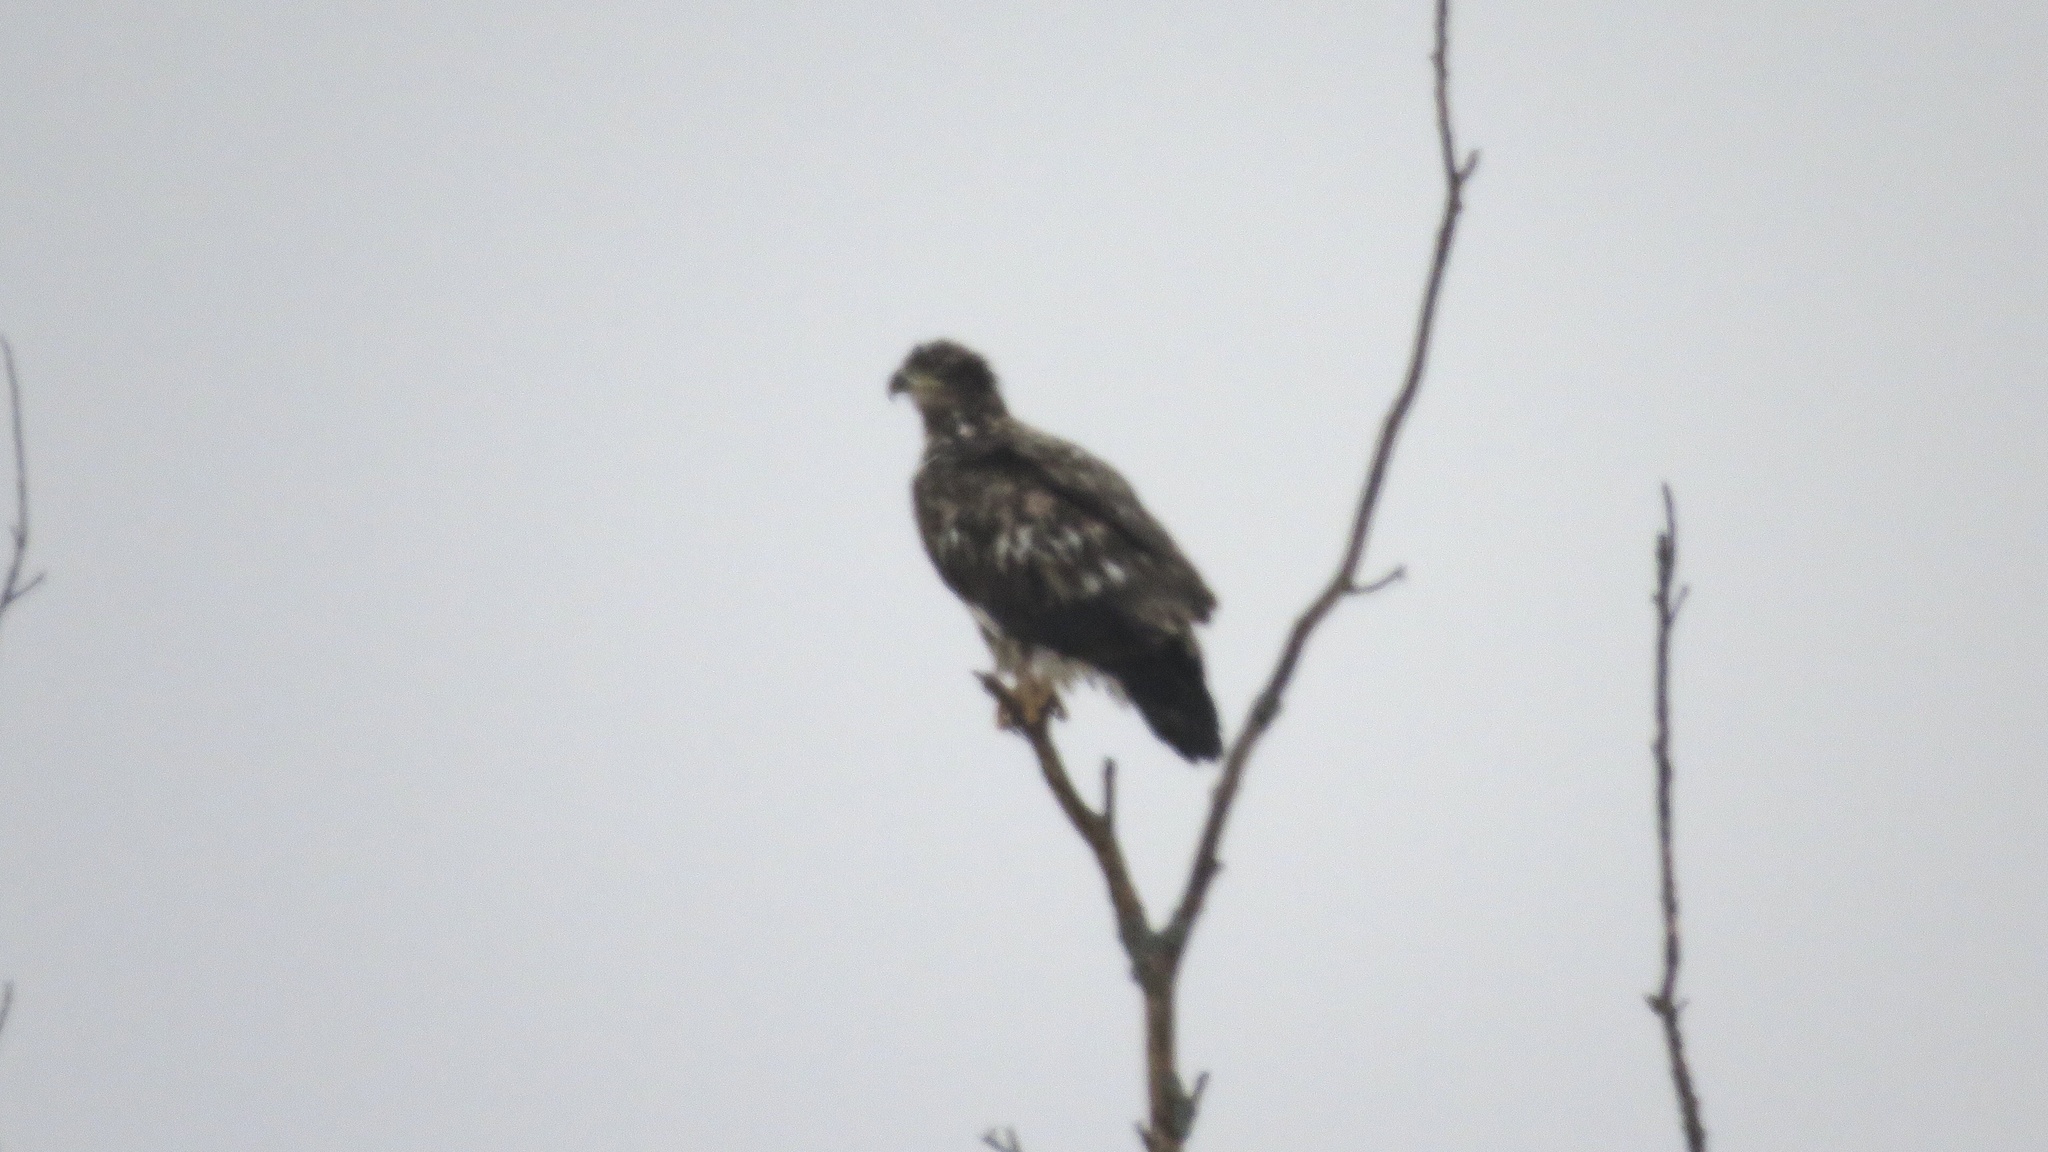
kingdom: Animalia
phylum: Chordata
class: Aves
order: Accipitriformes
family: Accipitridae
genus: Haliaeetus
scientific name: Haliaeetus leucocephalus
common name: Bald eagle
